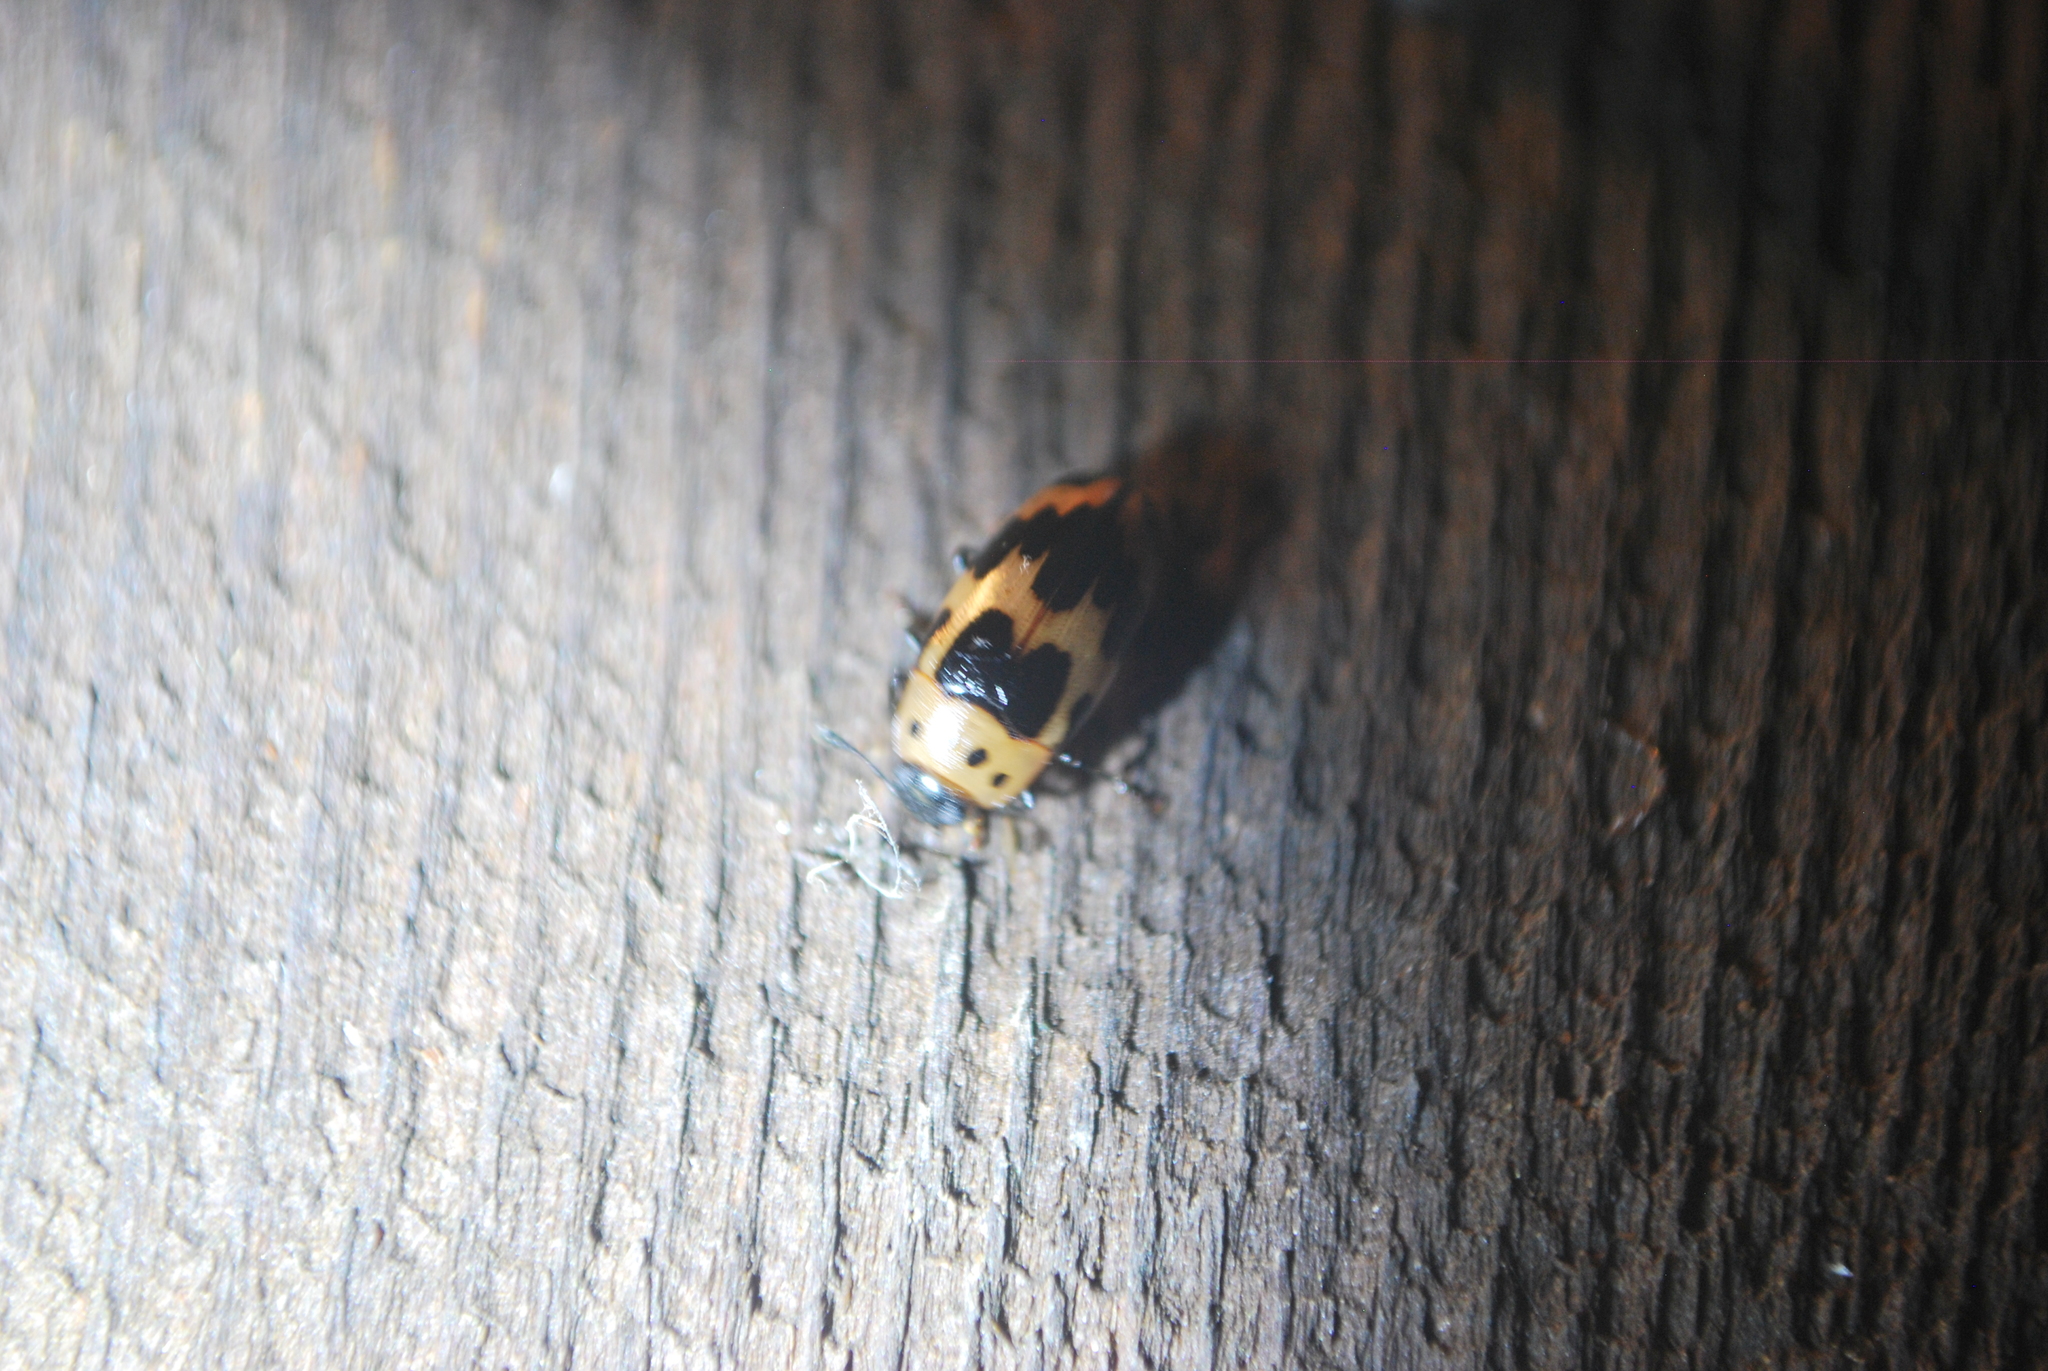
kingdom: Animalia
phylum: Arthropoda
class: Insecta
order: Coleoptera
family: Erotylidae
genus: Ischyrus
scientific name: Ischyrus quadripunctatus
